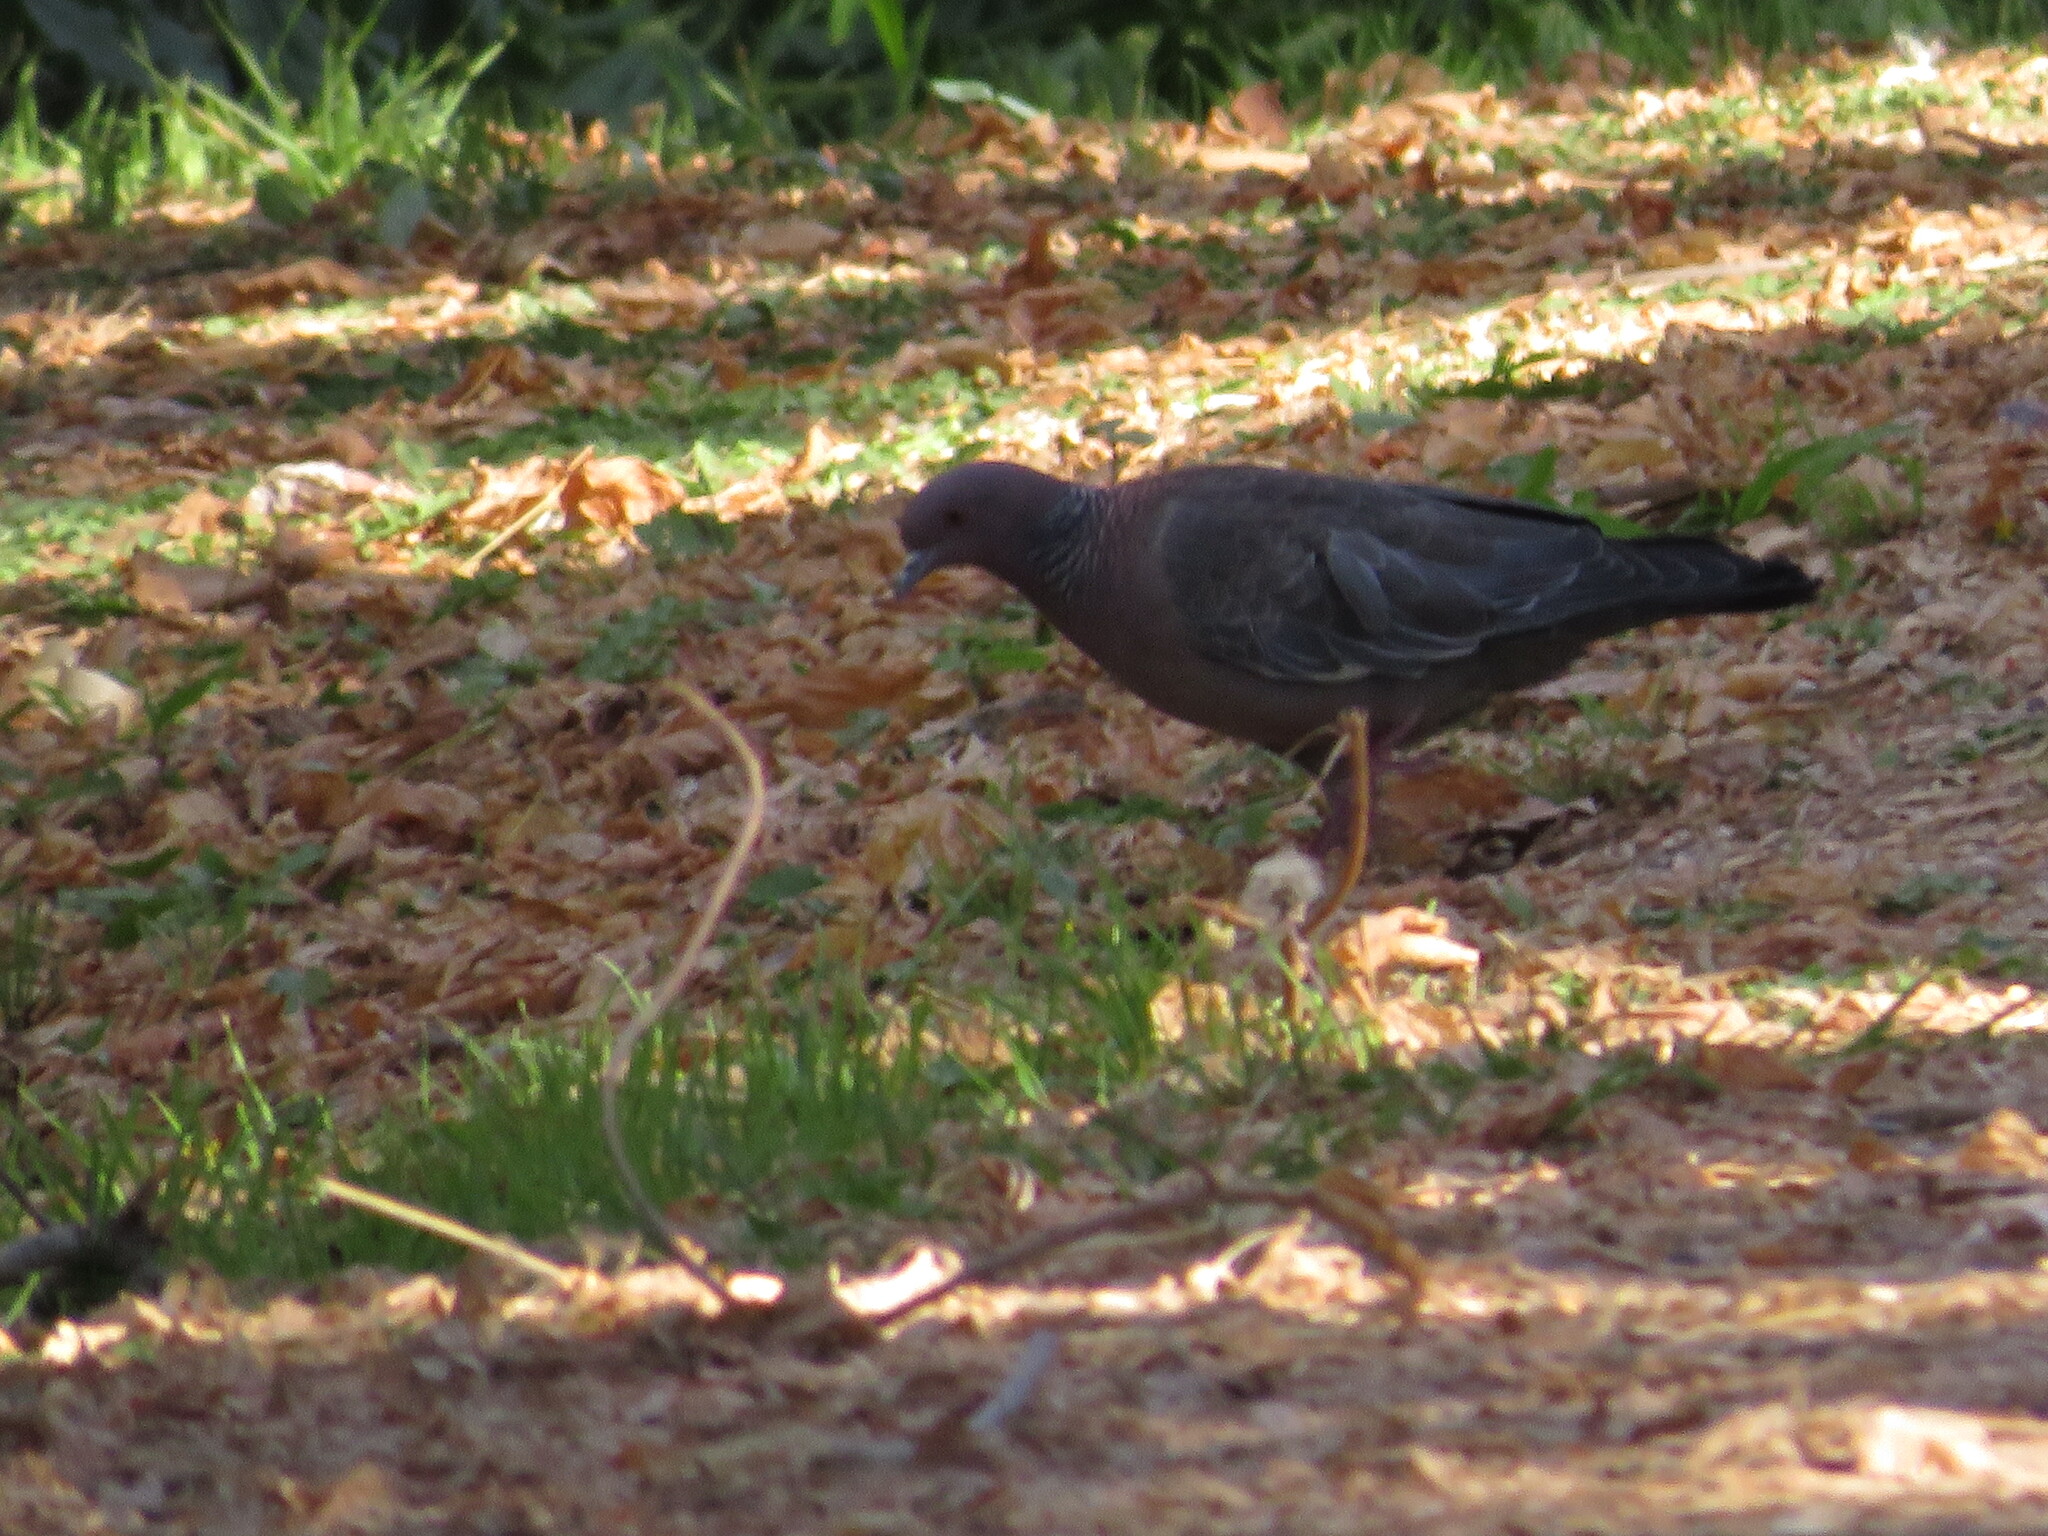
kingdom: Animalia
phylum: Chordata
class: Aves
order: Columbiformes
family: Columbidae
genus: Patagioenas
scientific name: Patagioenas picazuro
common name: Picazuro pigeon
